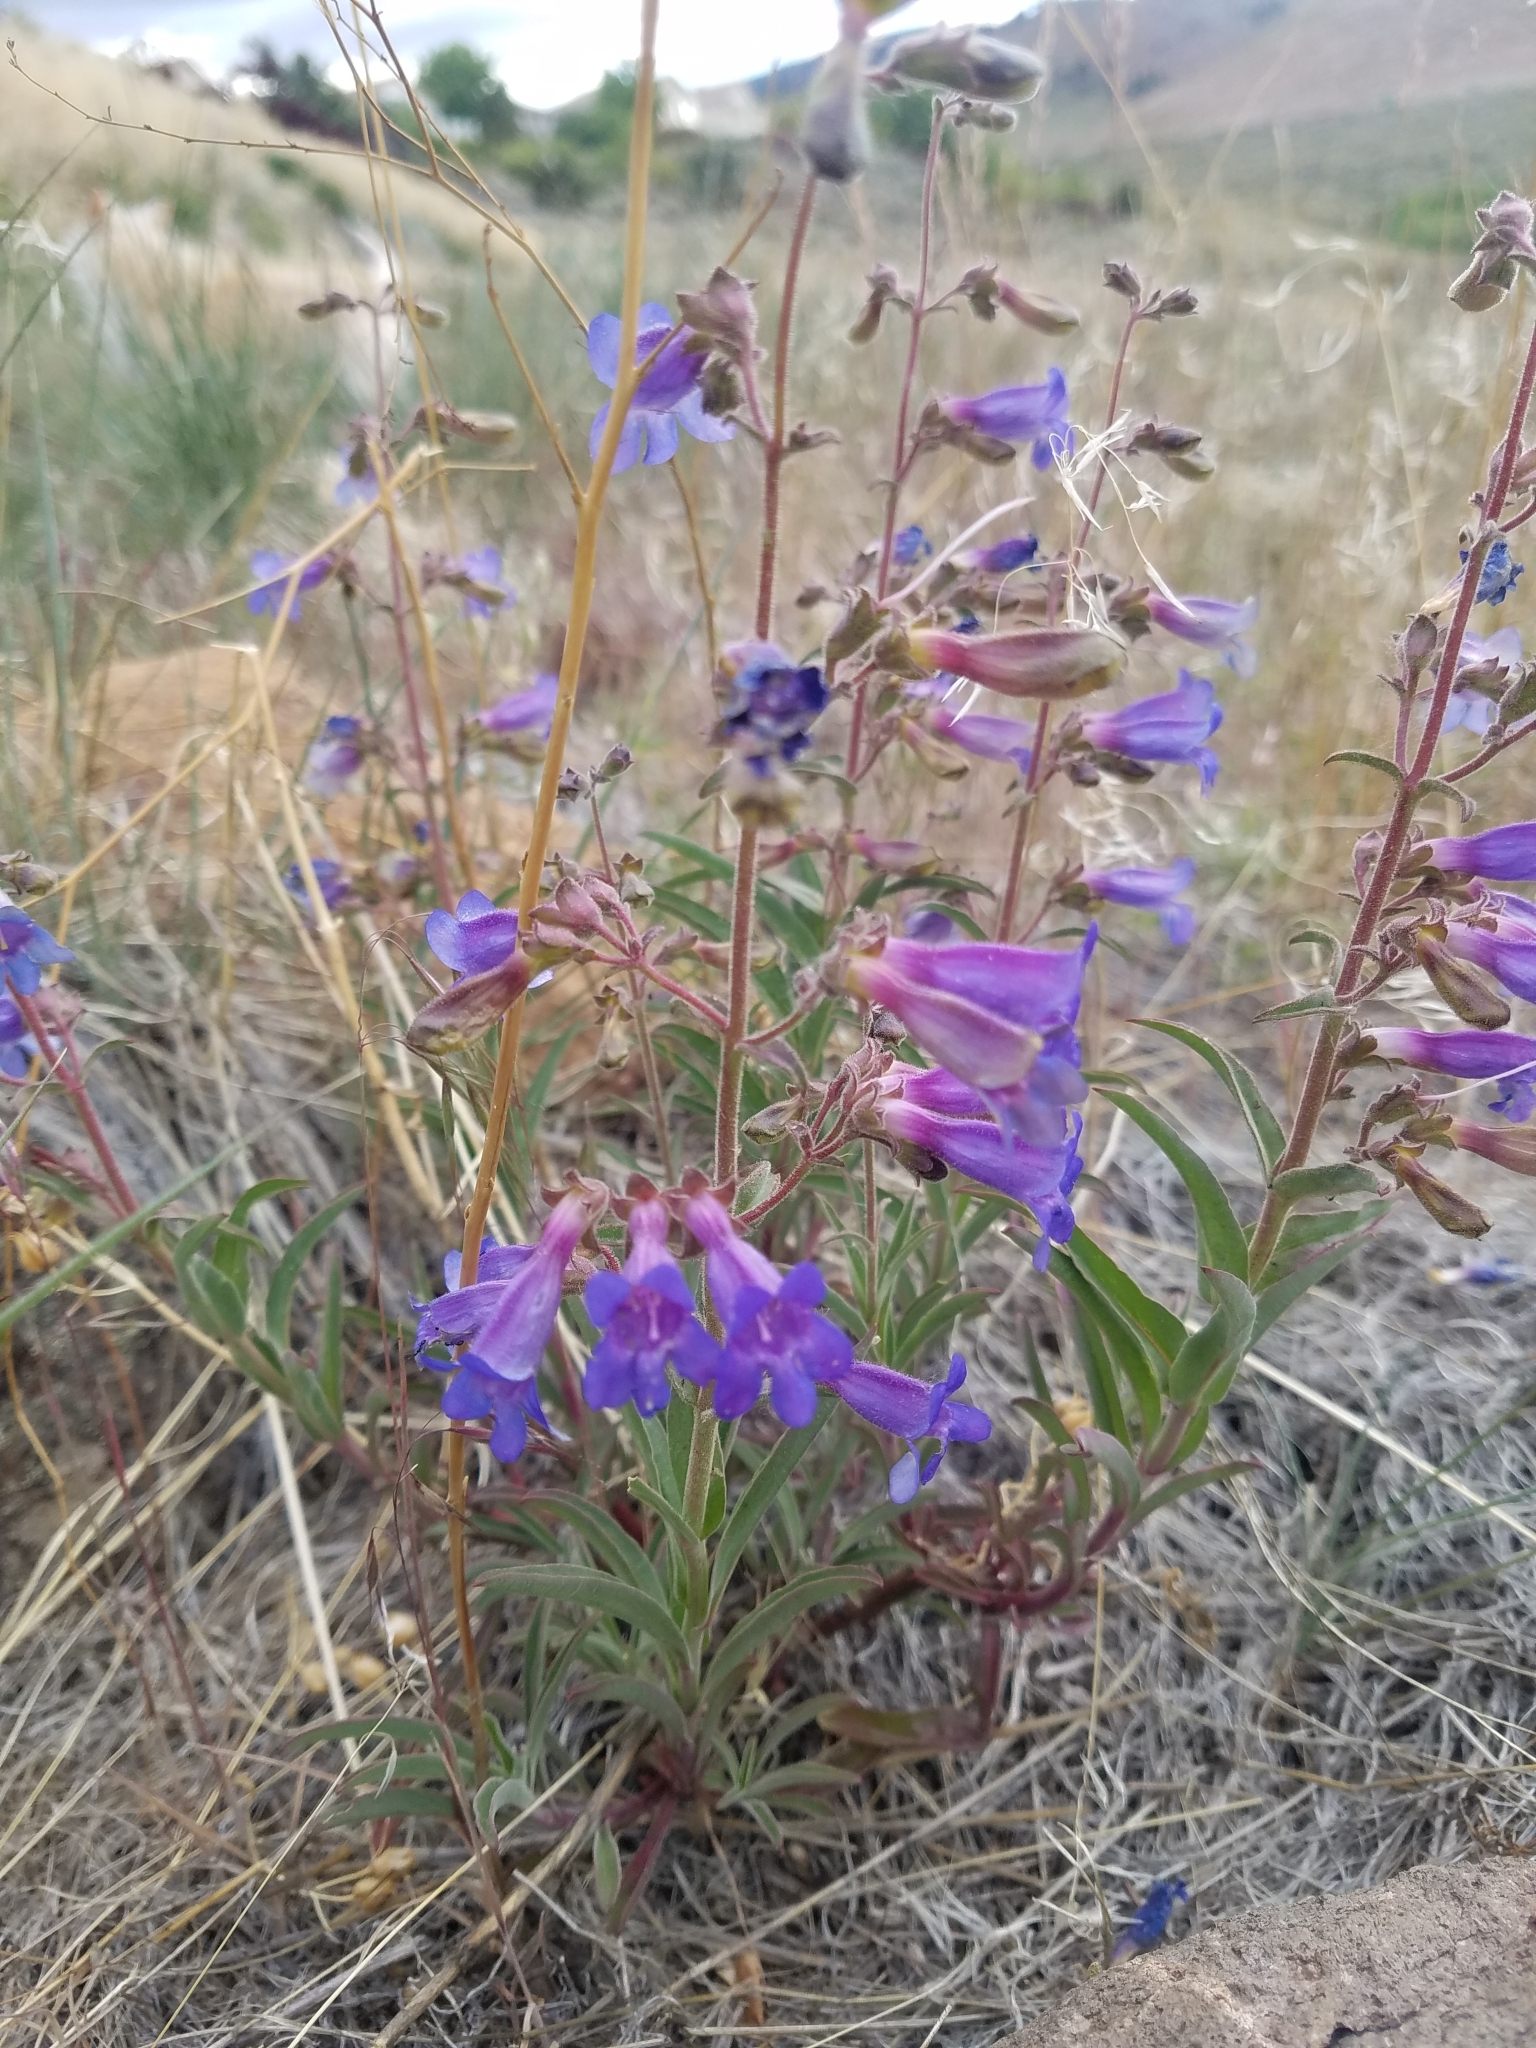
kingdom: Plantae
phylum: Tracheophyta
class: Magnoliopsida
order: Lamiales
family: Plantaginaceae
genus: Penstemon
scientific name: Penstemon roezlii
